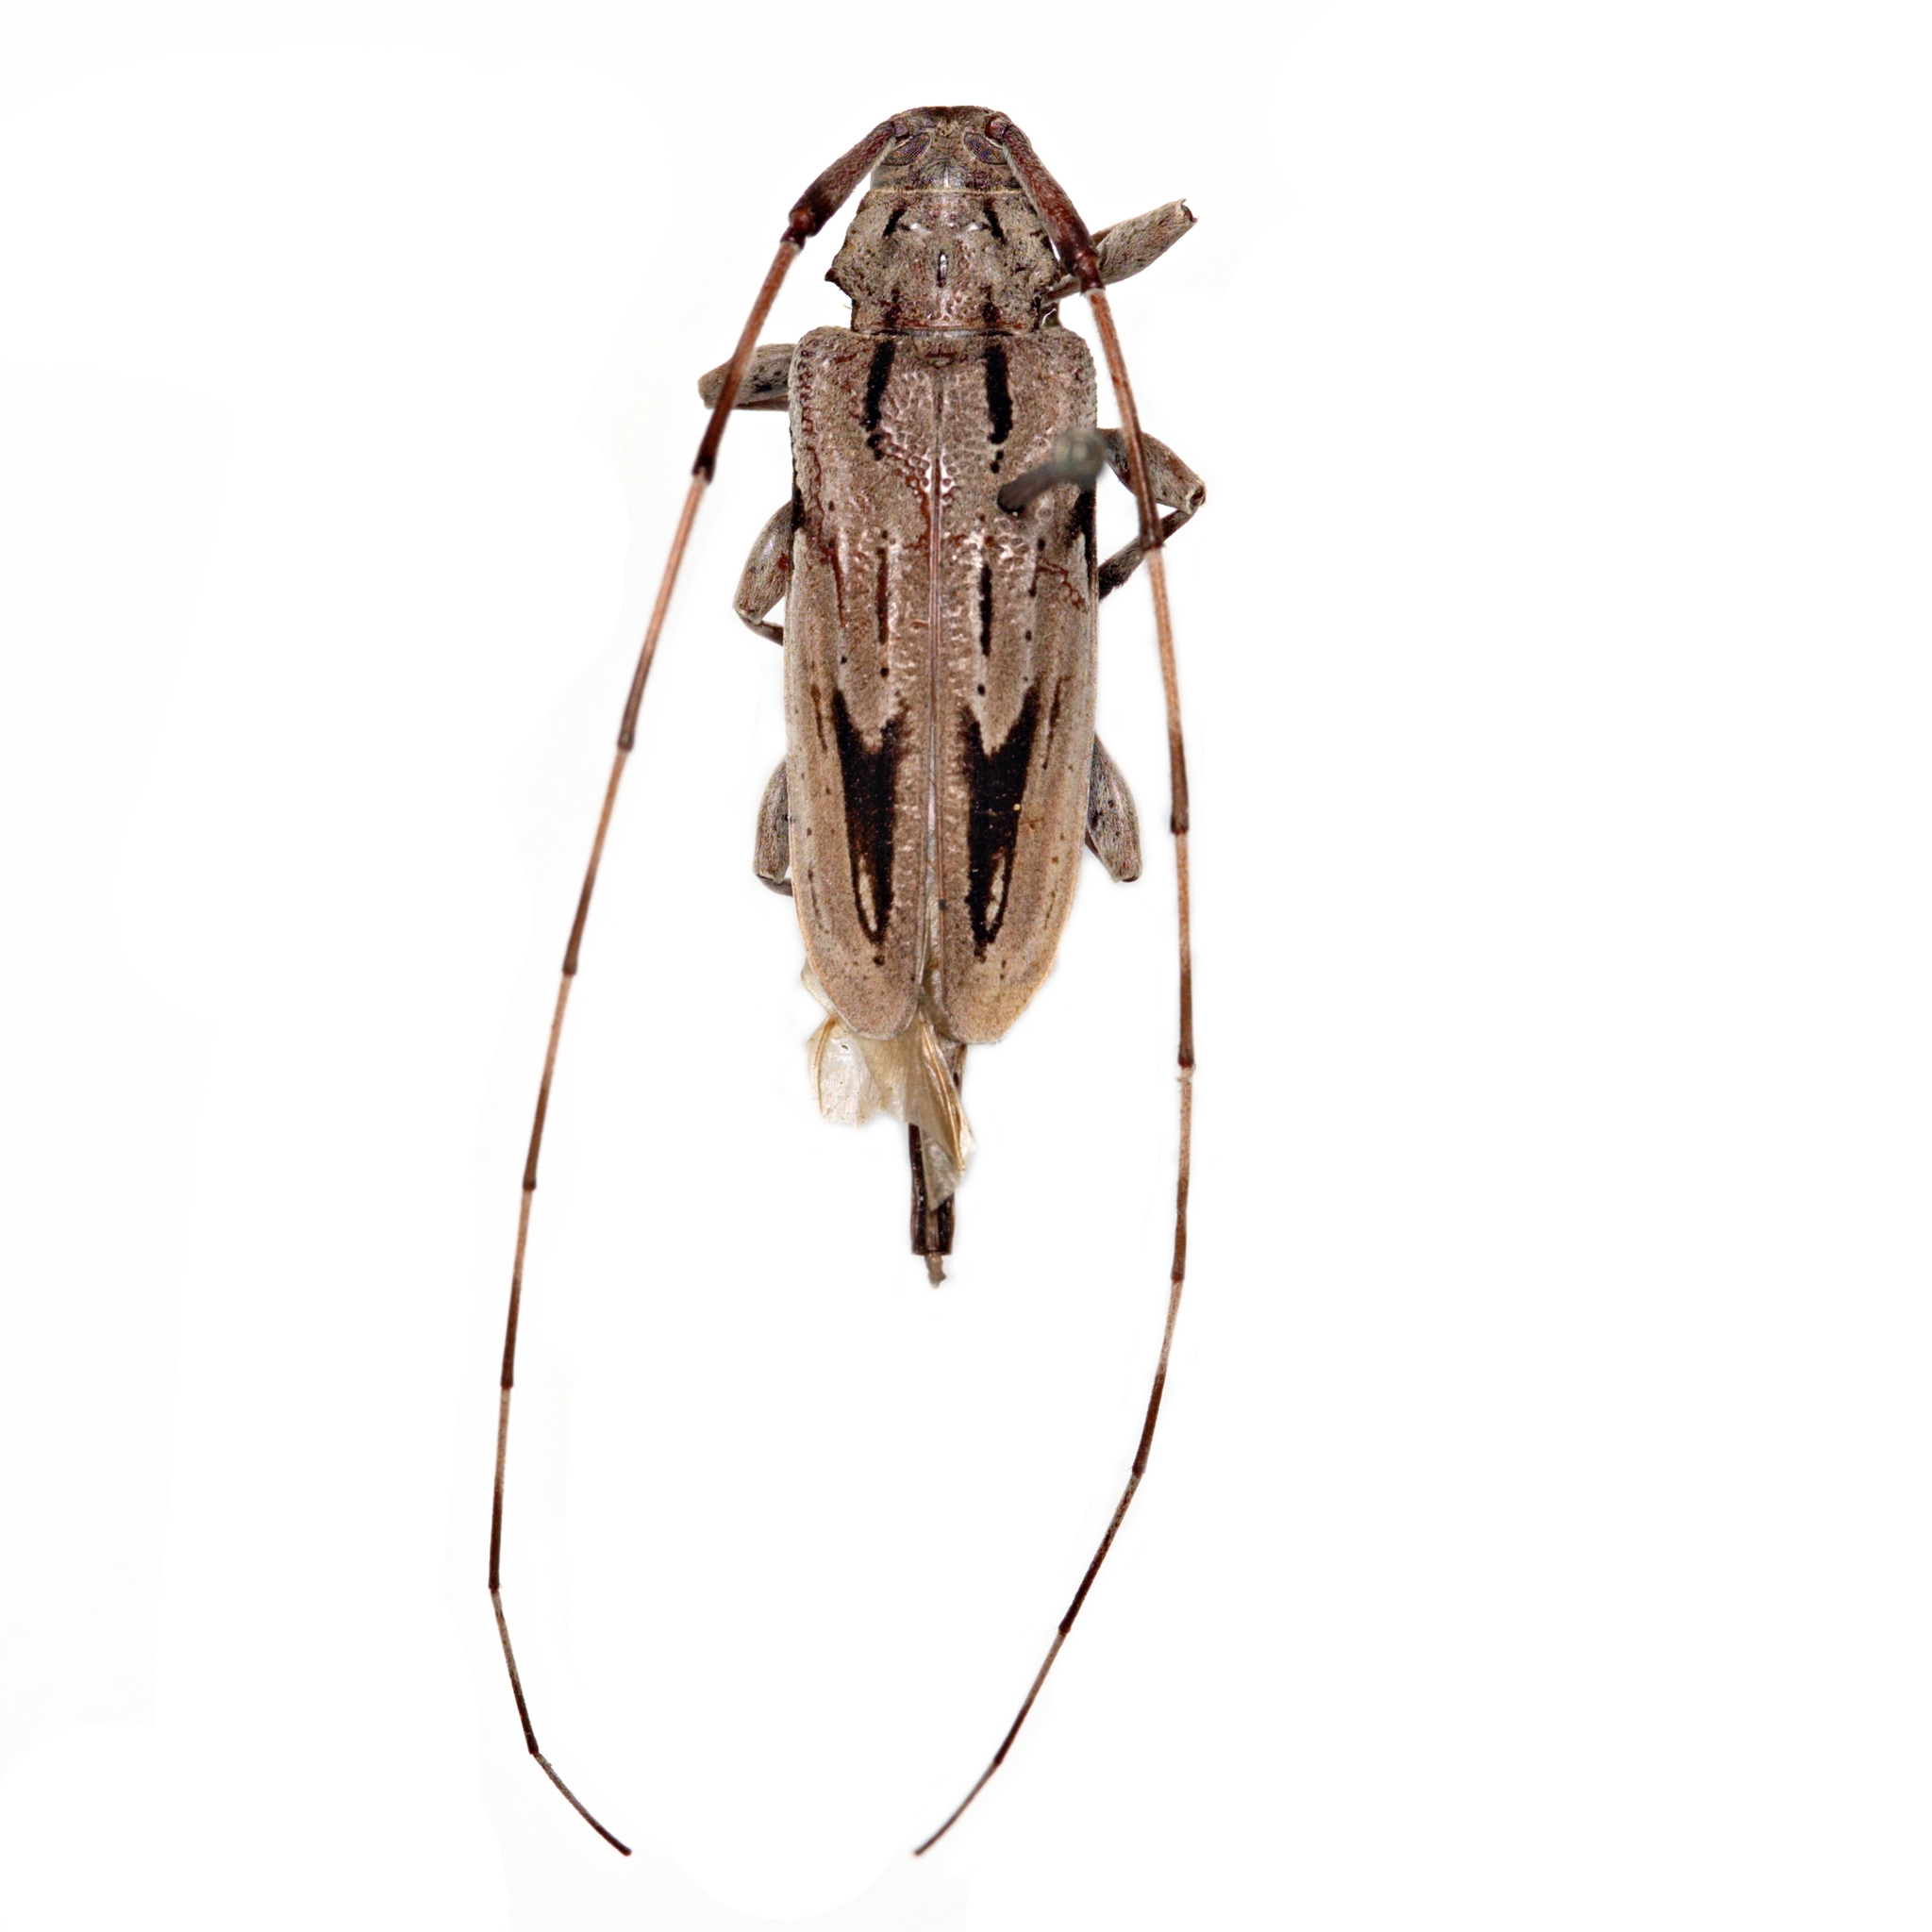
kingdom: Animalia
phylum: Arthropoda
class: Insecta
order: Coleoptera
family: Cerambycidae
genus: Acanthocinus
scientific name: Acanthocinus nodosus
